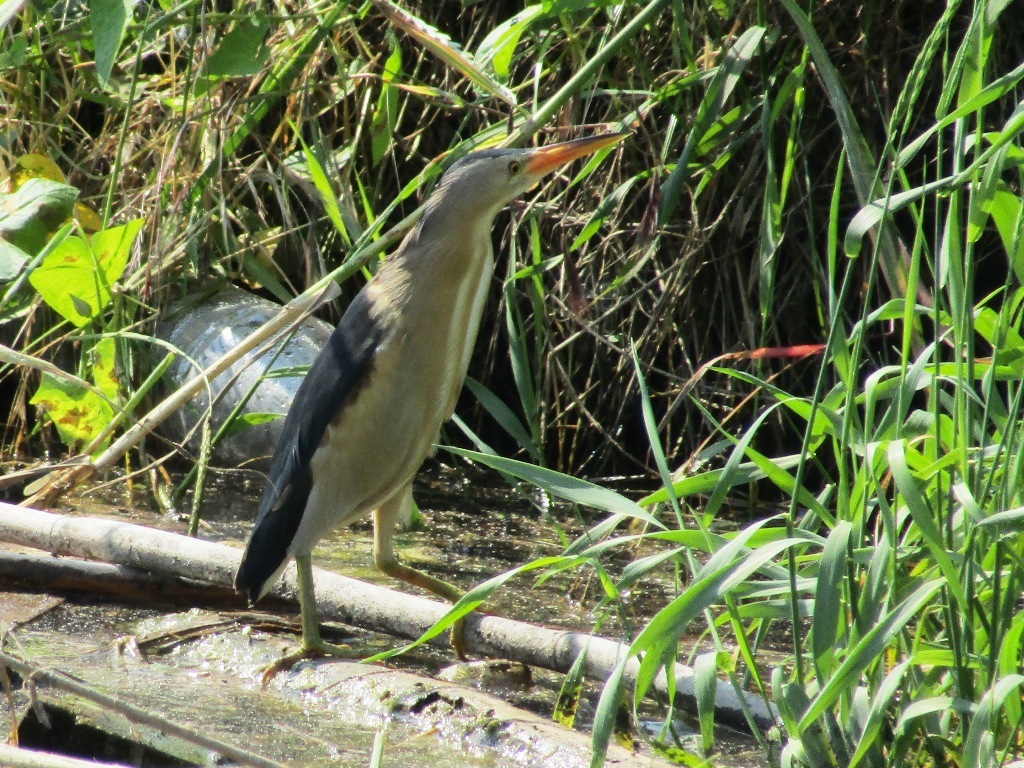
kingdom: Animalia
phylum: Chordata
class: Aves
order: Pelecaniformes
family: Ardeidae
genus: Ixobrychus
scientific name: Ixobrychus minutus
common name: Little bittern
